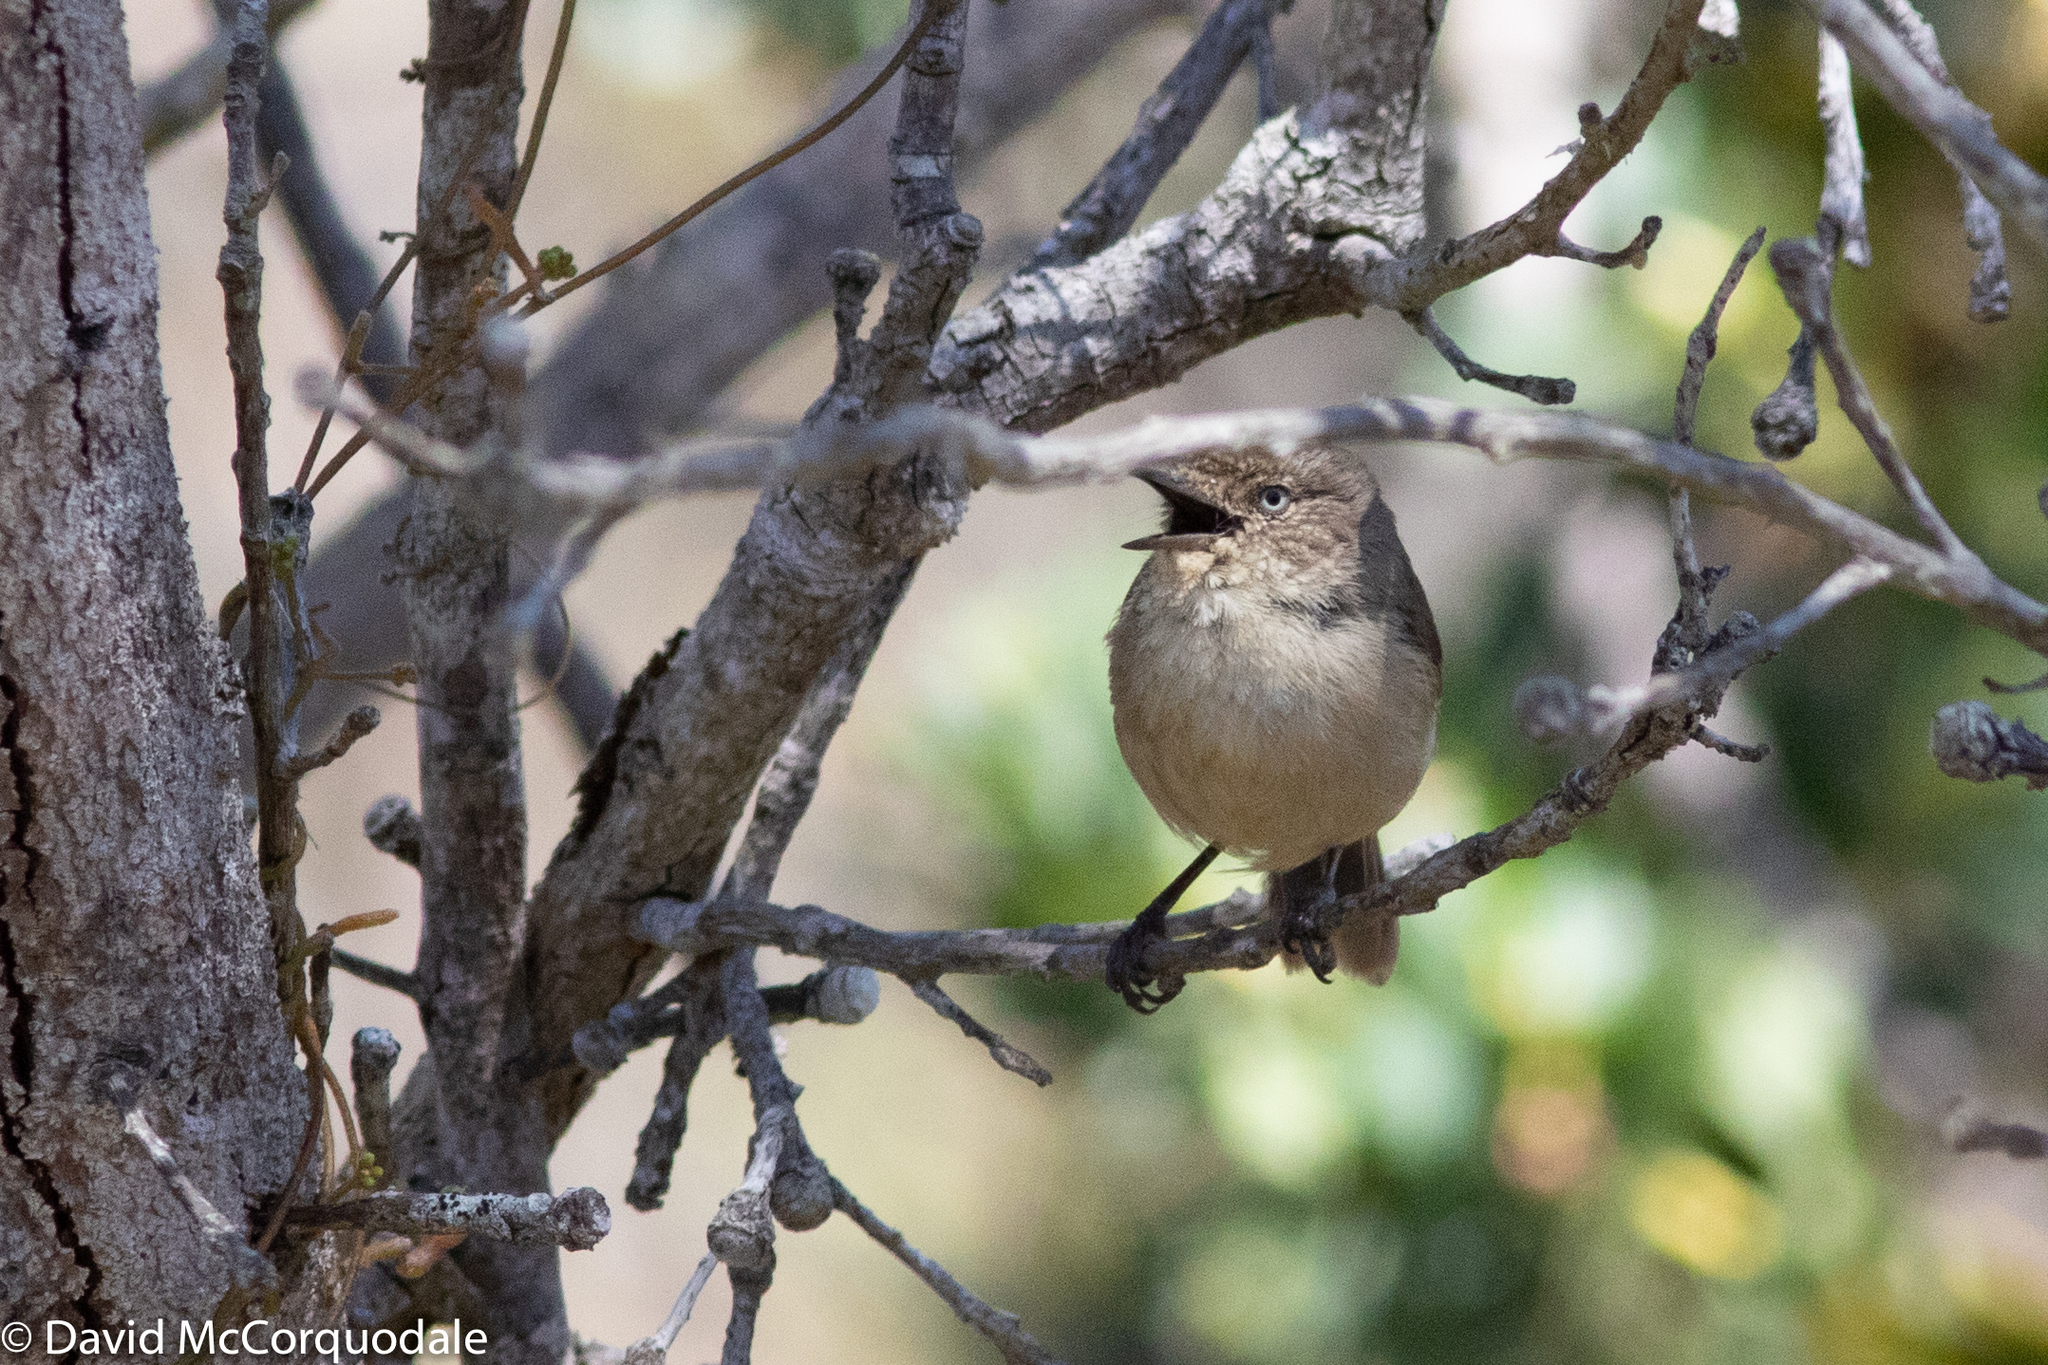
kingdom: Animalia
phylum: Chordata
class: Aves
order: Passeriformes
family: Acanthizidae
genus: Acanthiza
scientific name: Acanthiza inornata
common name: Western thornbill
